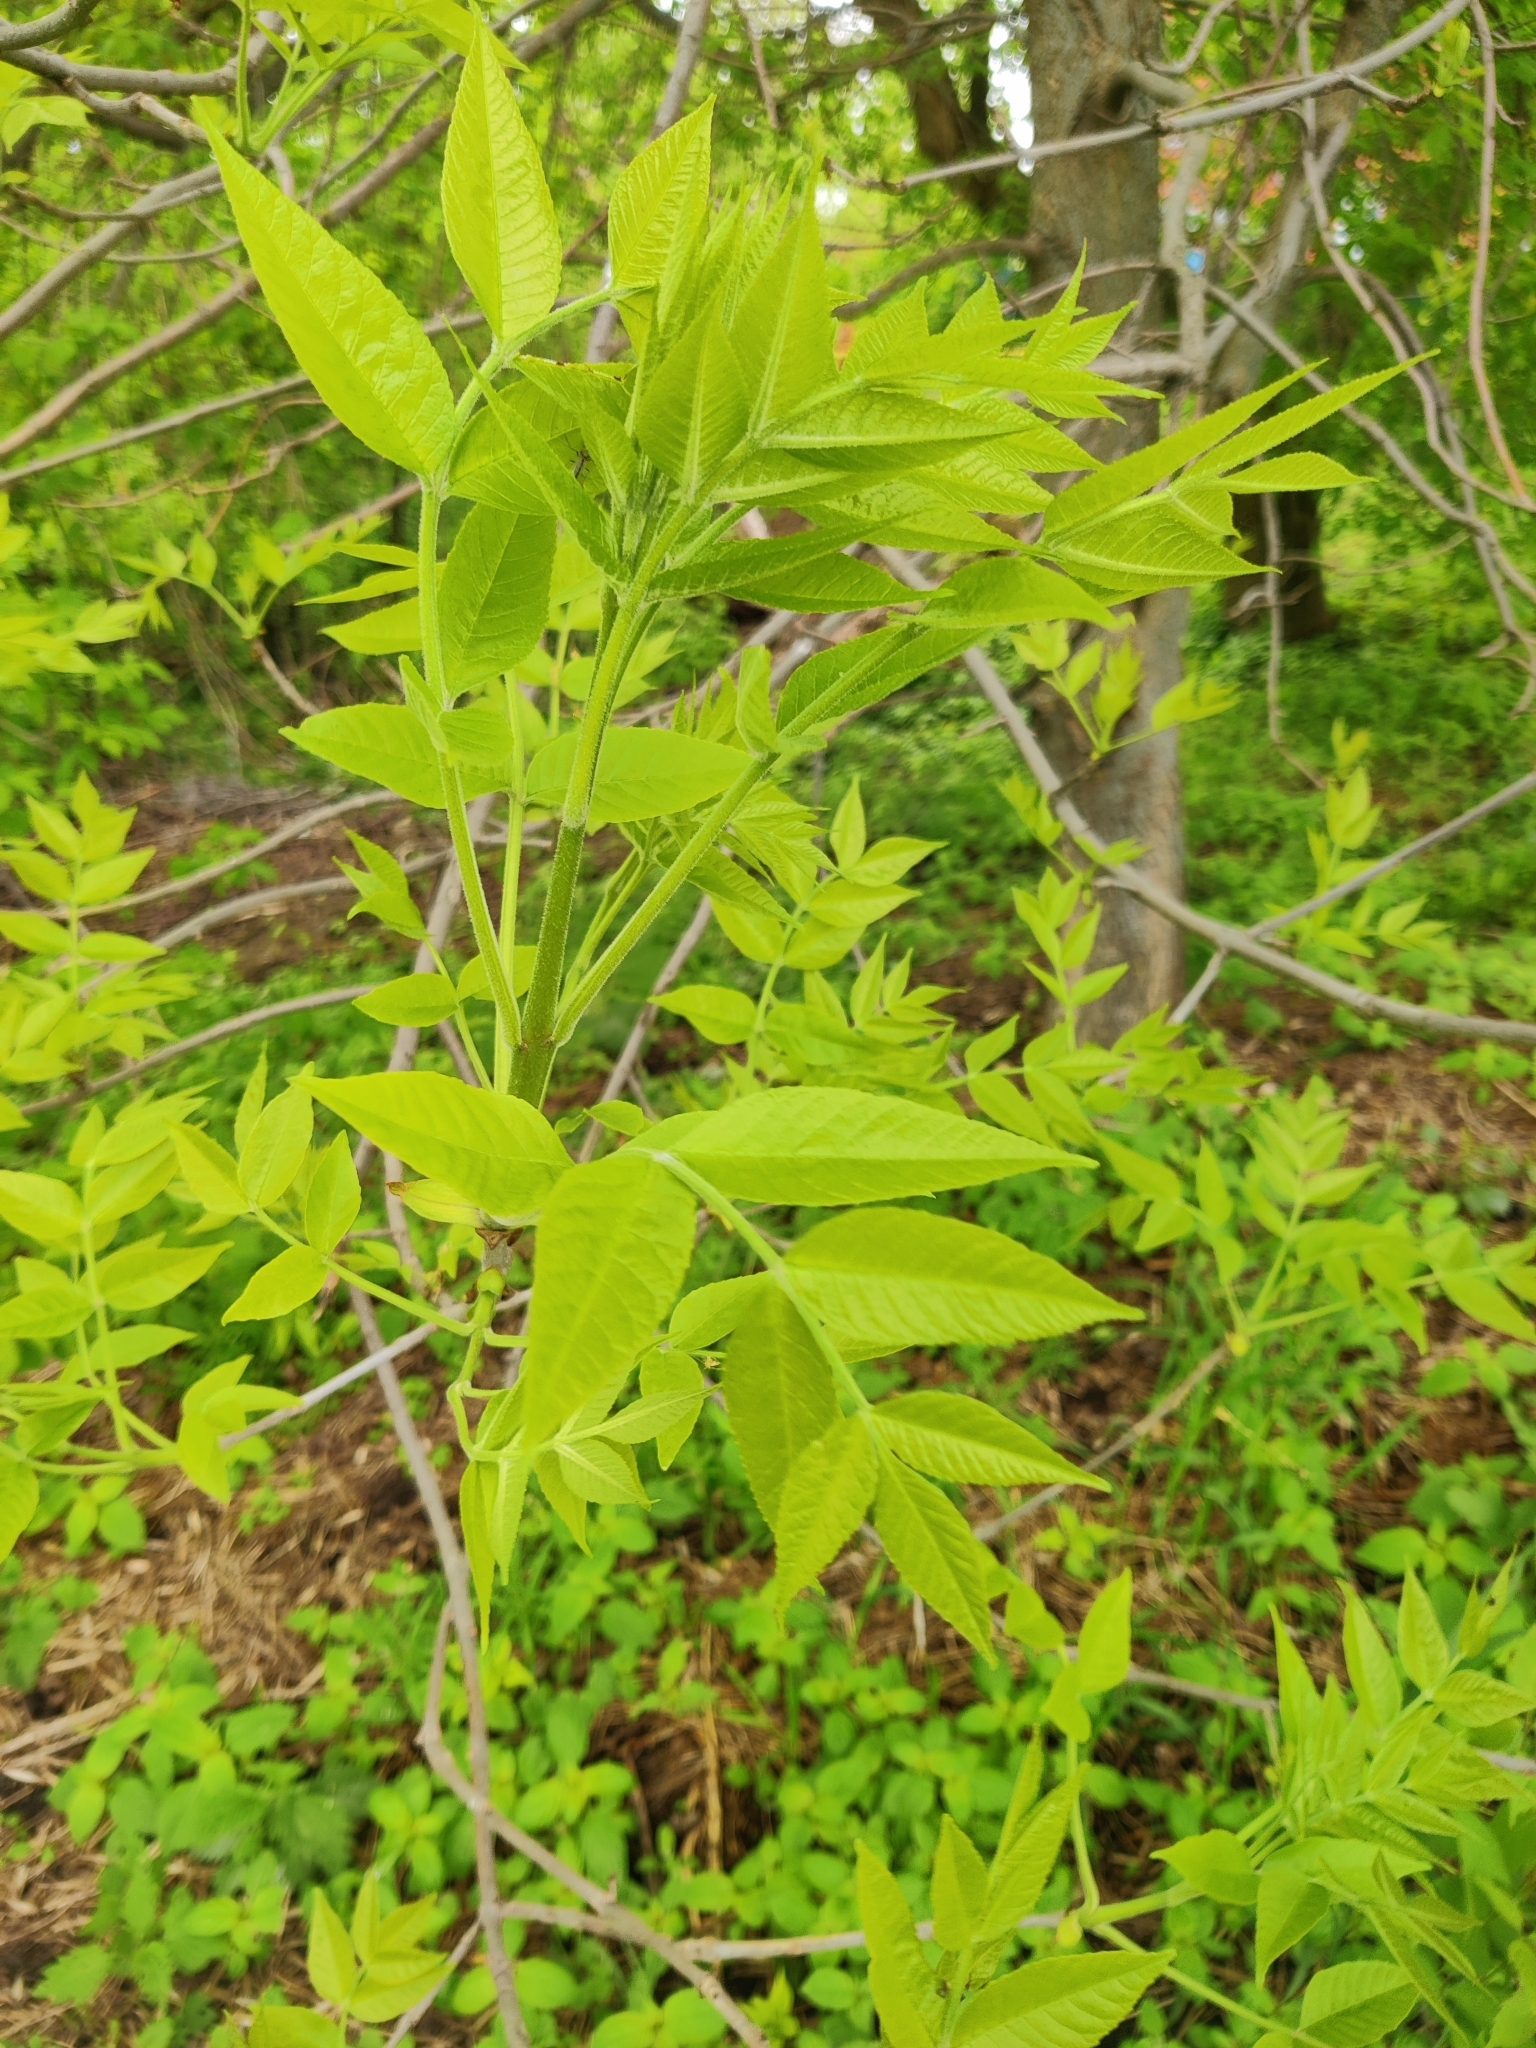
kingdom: Plantae
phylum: Tracheophyta
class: Magnoliopsida
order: Lamiales
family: Oleaceae
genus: Fraxinus
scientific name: Fraxinus pennsylvanica
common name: Green ash
